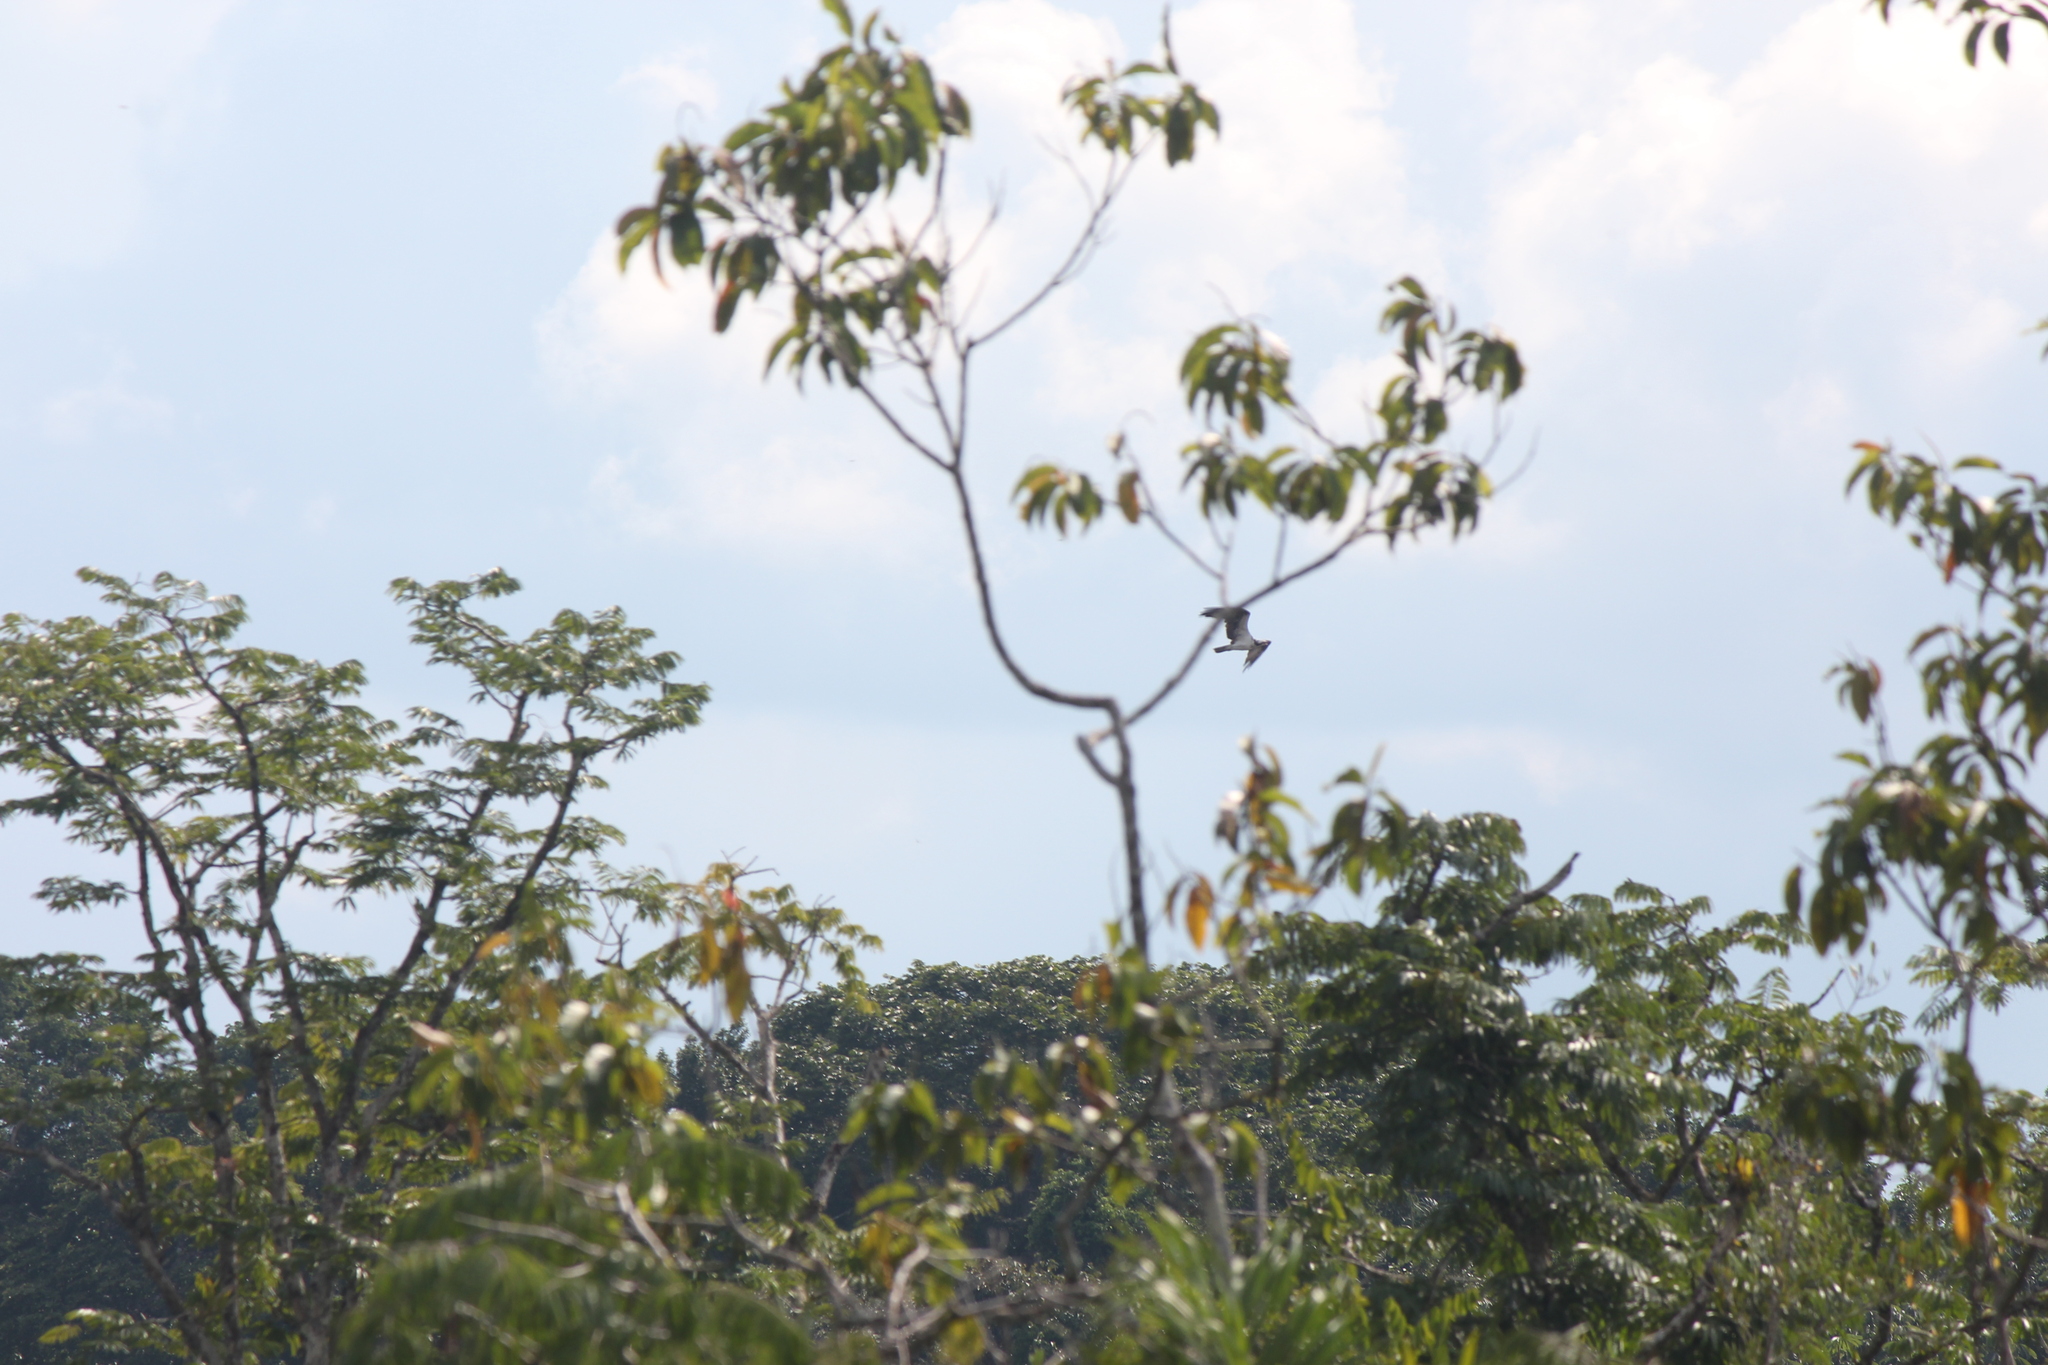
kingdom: Animalia
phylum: Chordata
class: Aves
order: Accipitriformes
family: Pandionidae
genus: Pandion
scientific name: Pandion haliaetus
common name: Osprey
